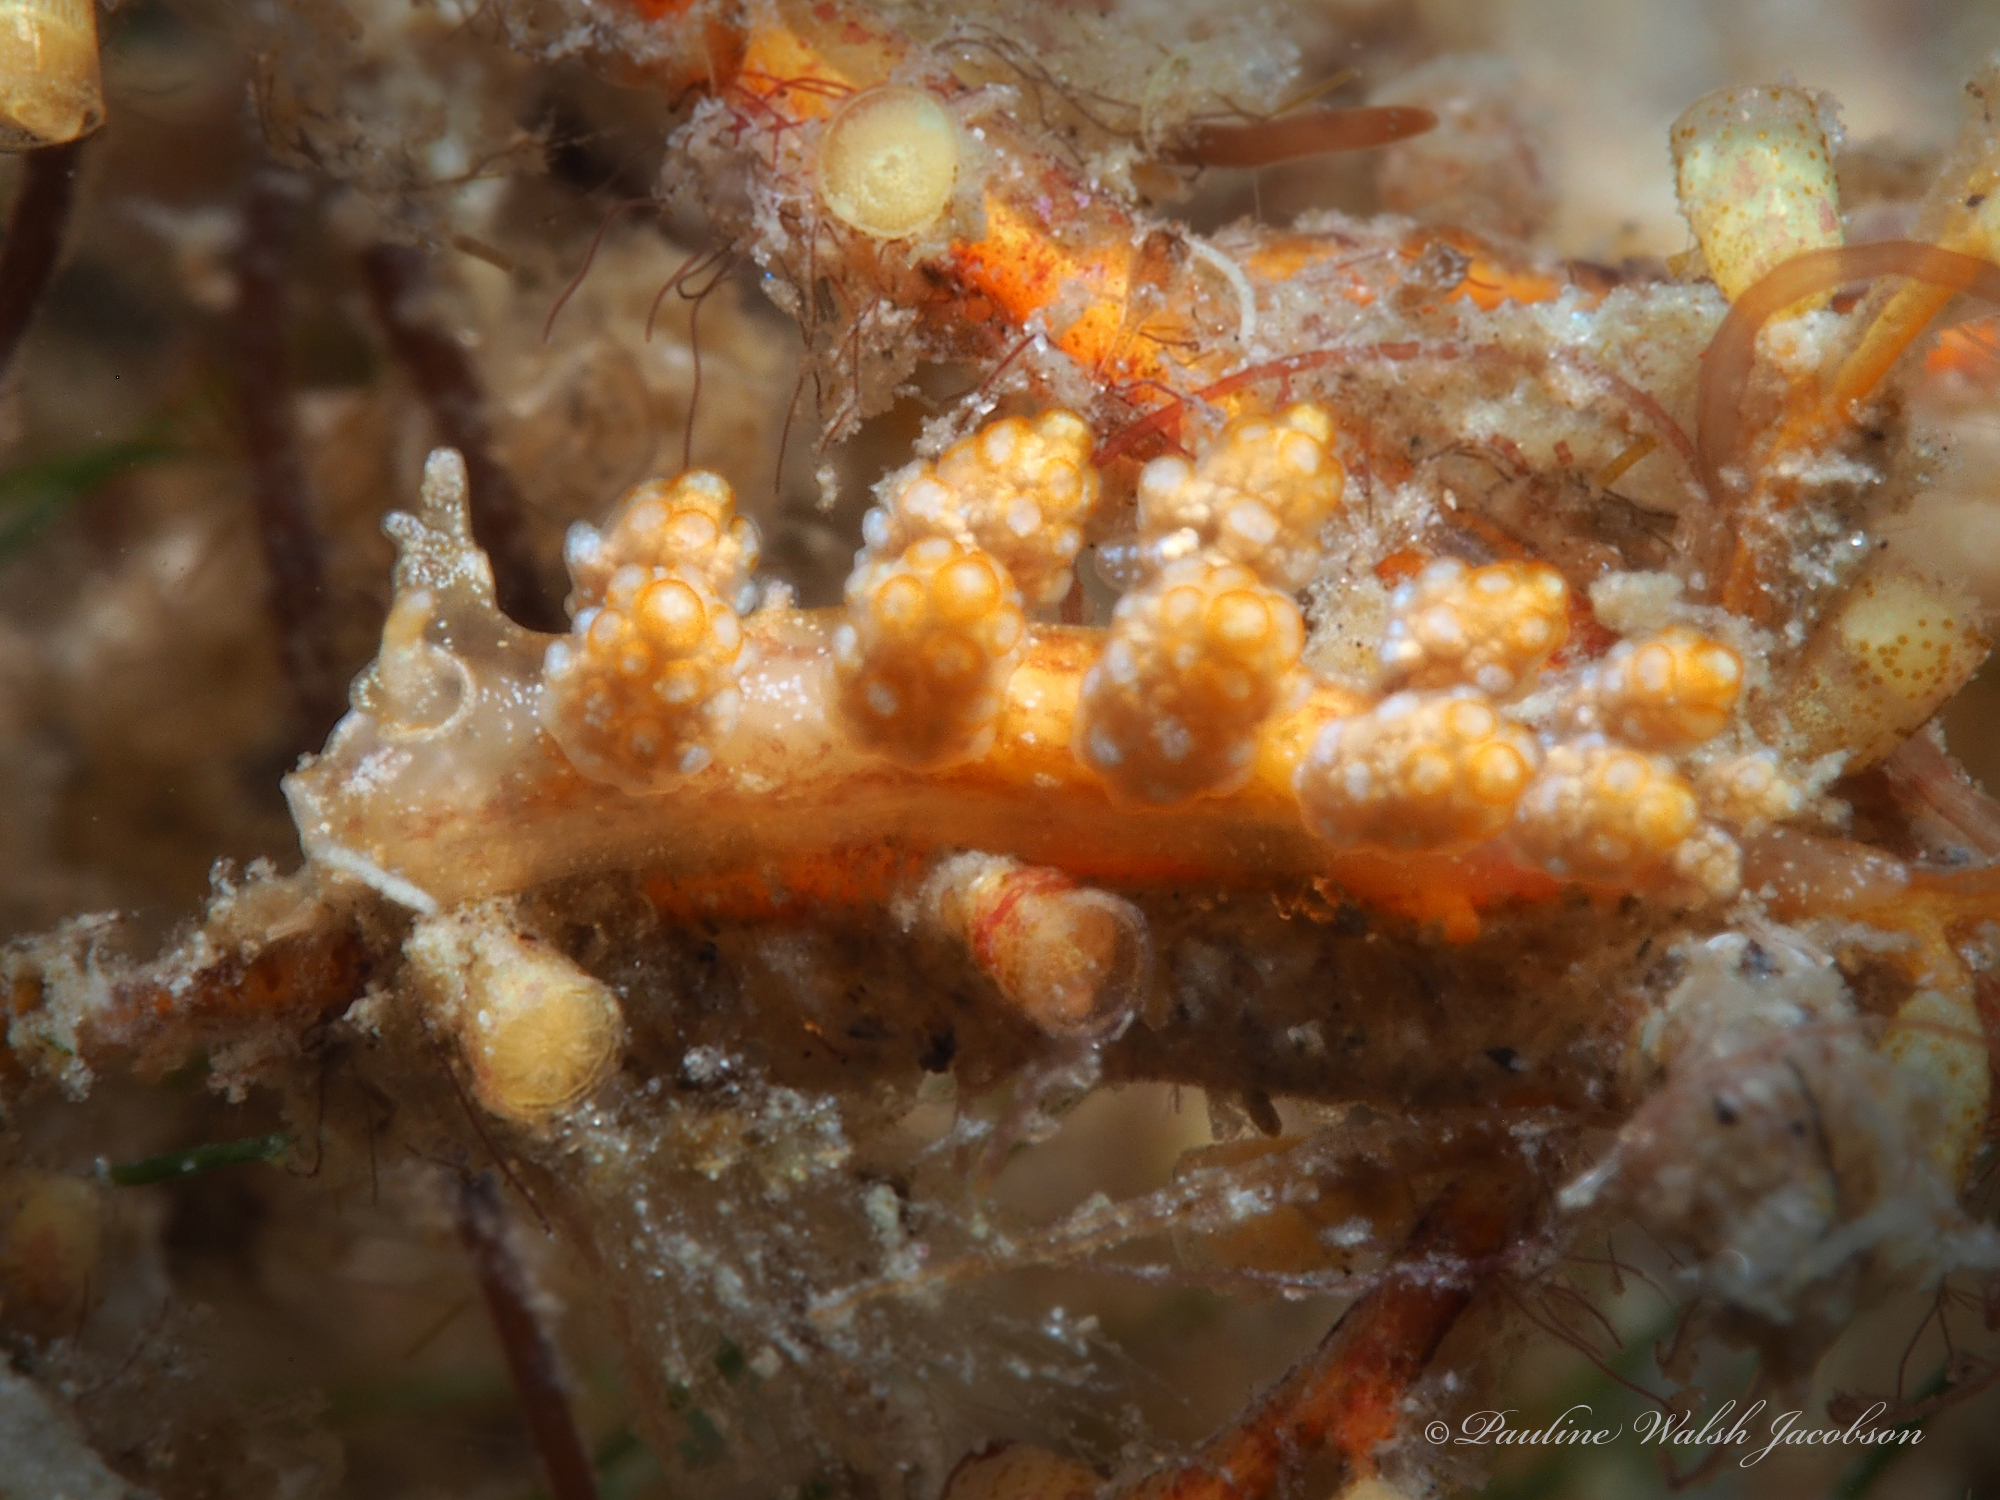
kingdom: Animalia
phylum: Mollusca
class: Gastropoda
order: Nudibranchia
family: Dotidae
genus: Doto
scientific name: Doto torrelavega
